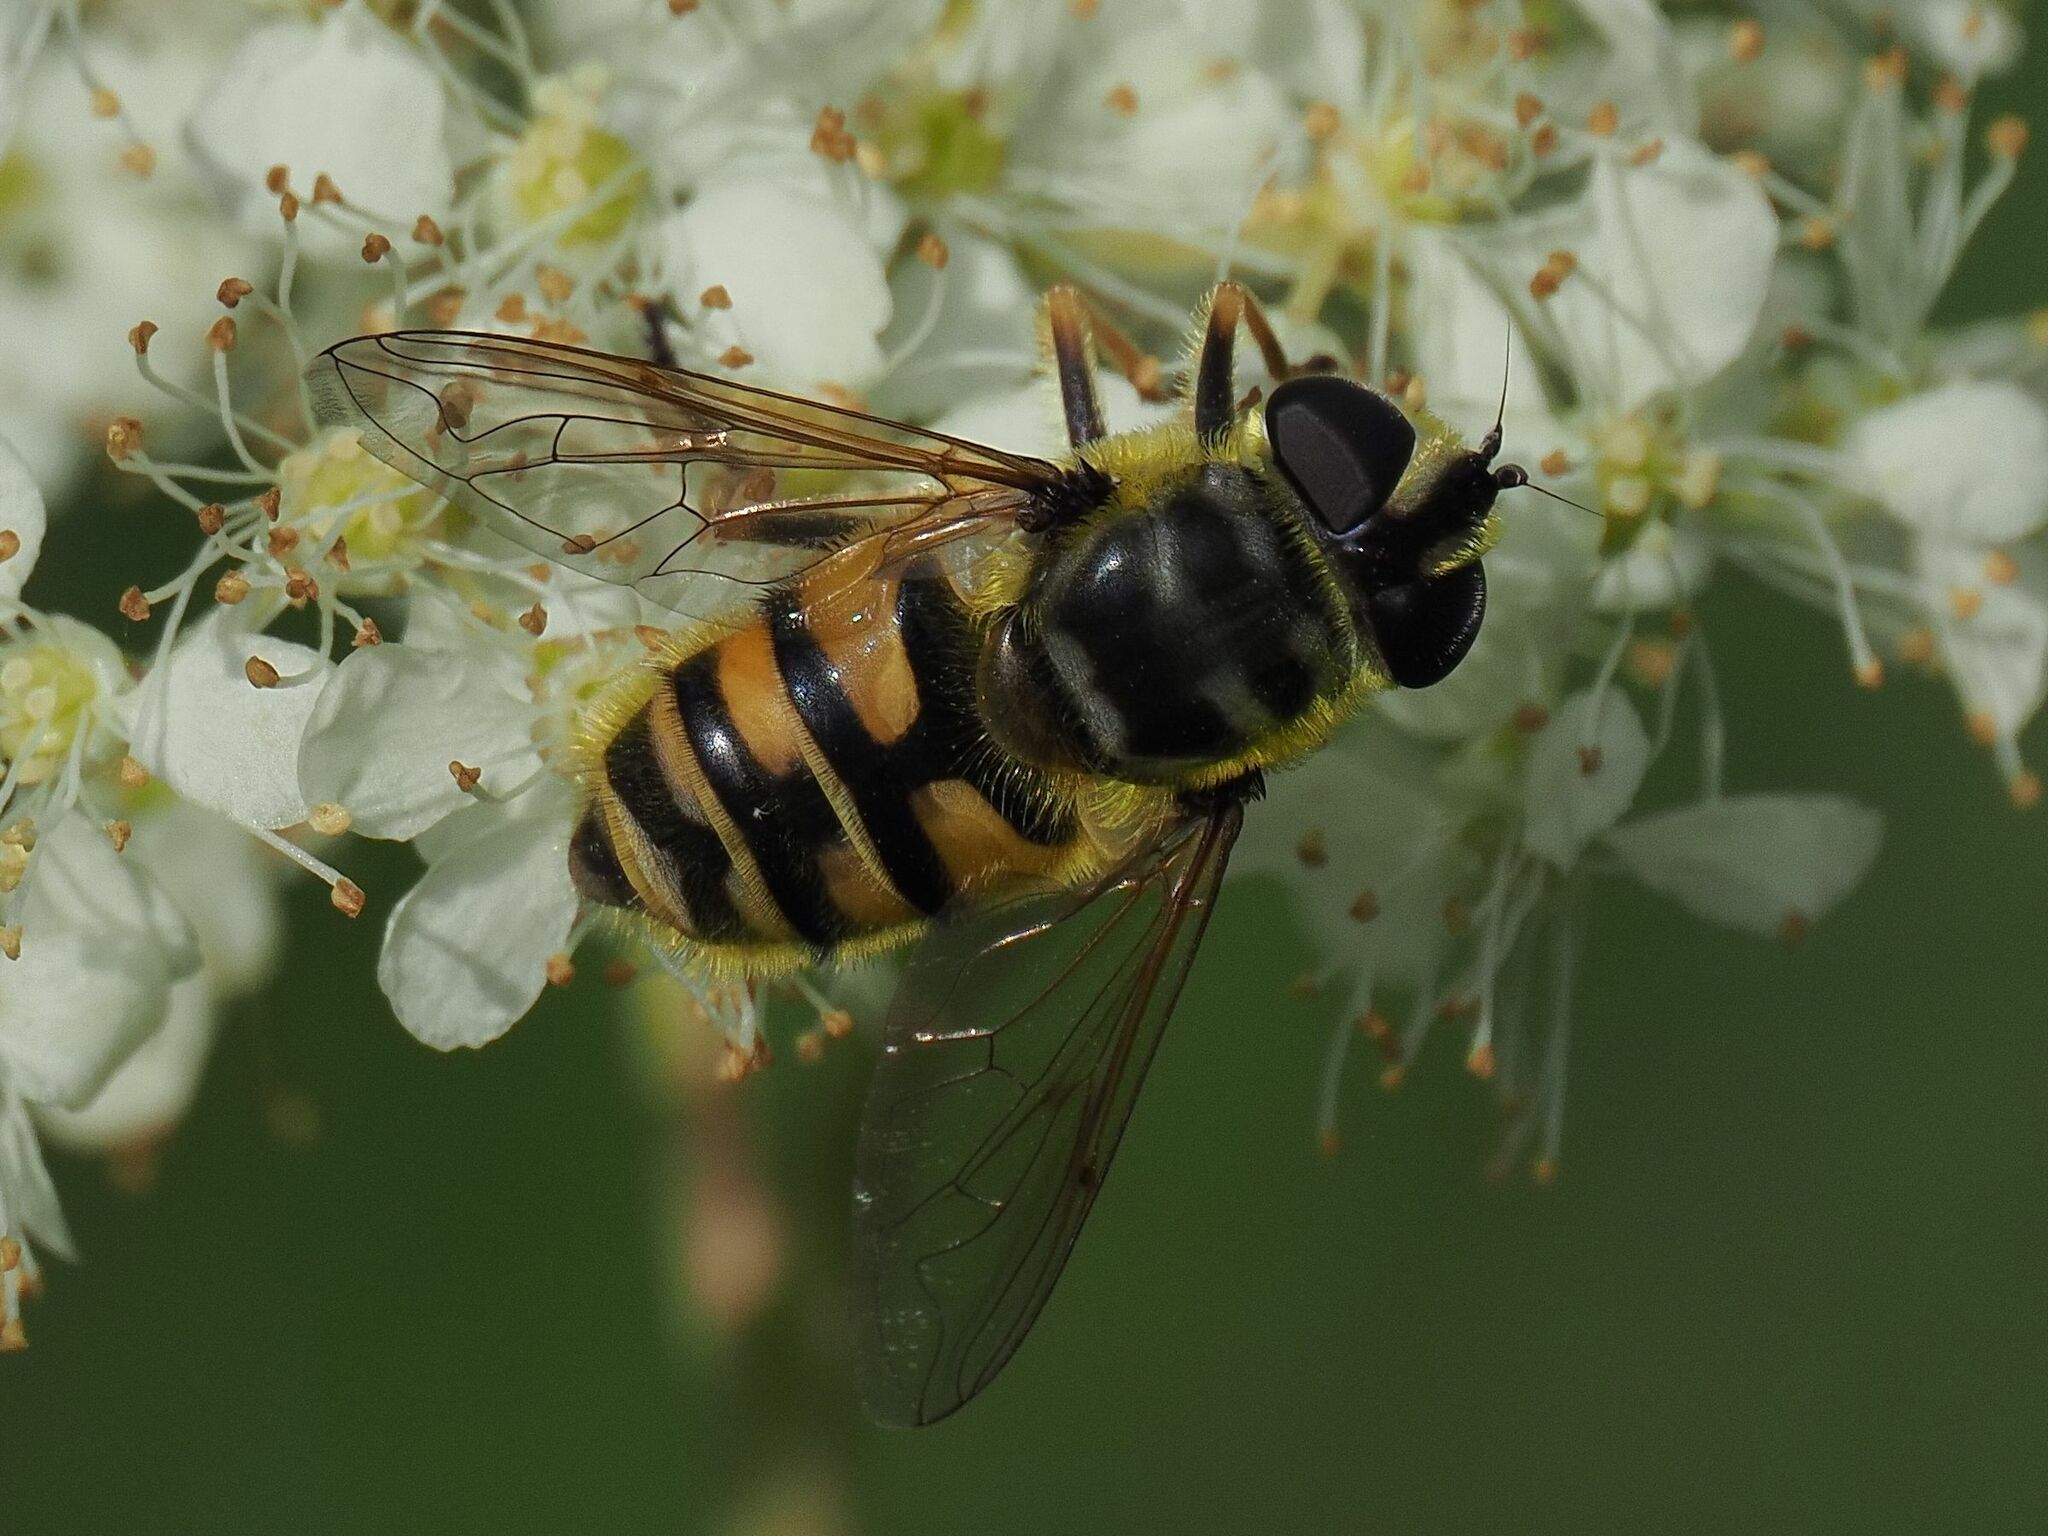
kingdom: Animalia
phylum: Arthropoda
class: Insecta
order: Diptera
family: Syrphidae
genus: Myathropa
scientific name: Myathropa florea
